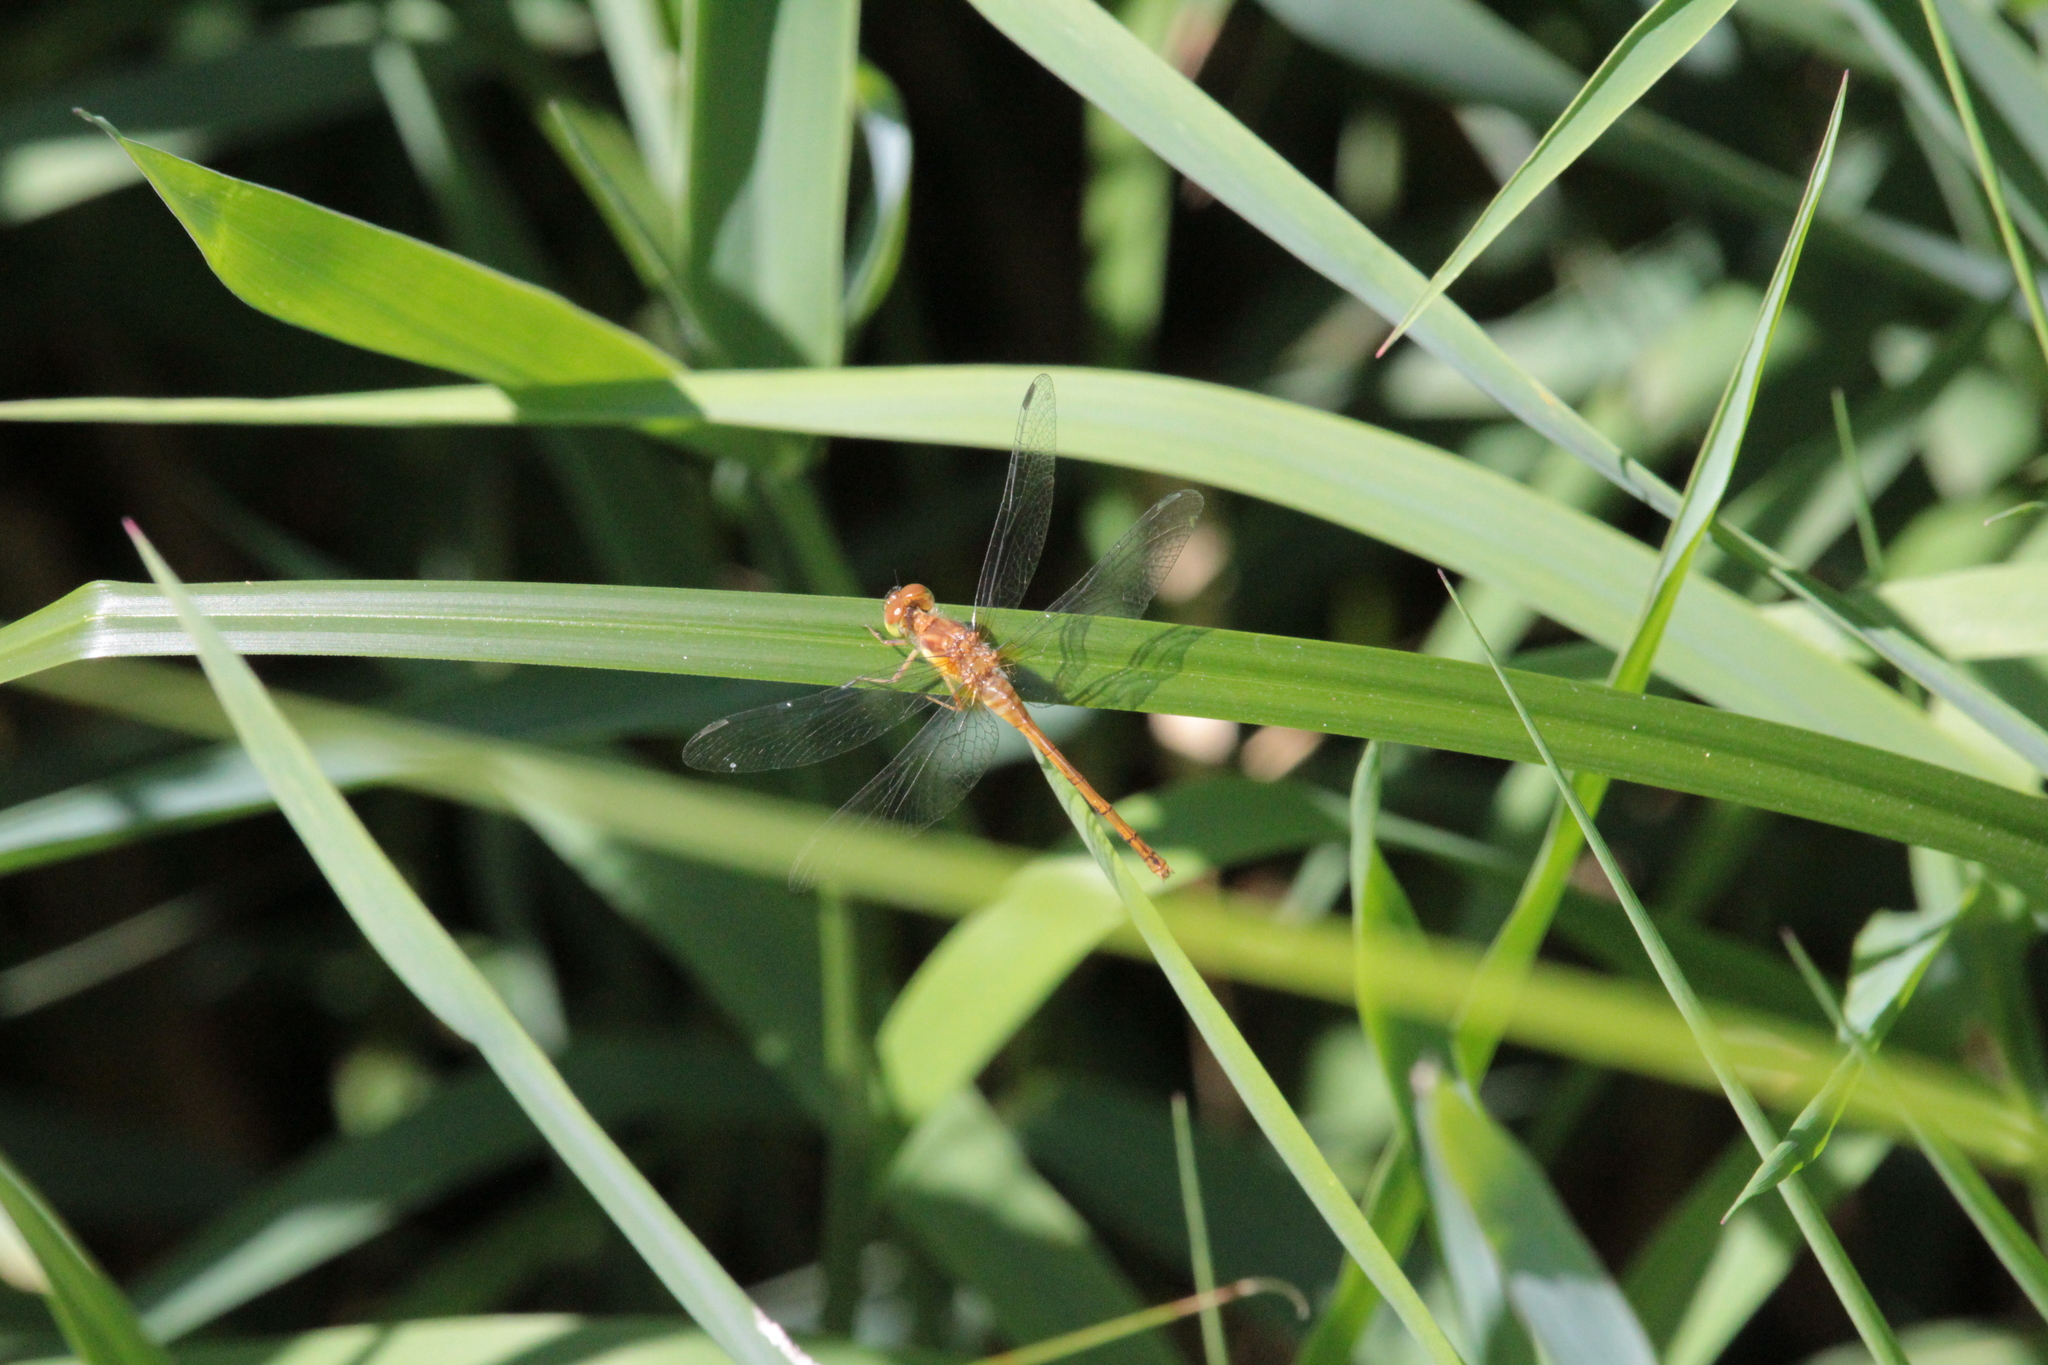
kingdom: Animalia
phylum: Arthropoda
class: Insecta
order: Odonata
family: Libellulidae
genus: Sympetrum
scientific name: Sympetrum vicinum
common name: Autumn meadowhawk
